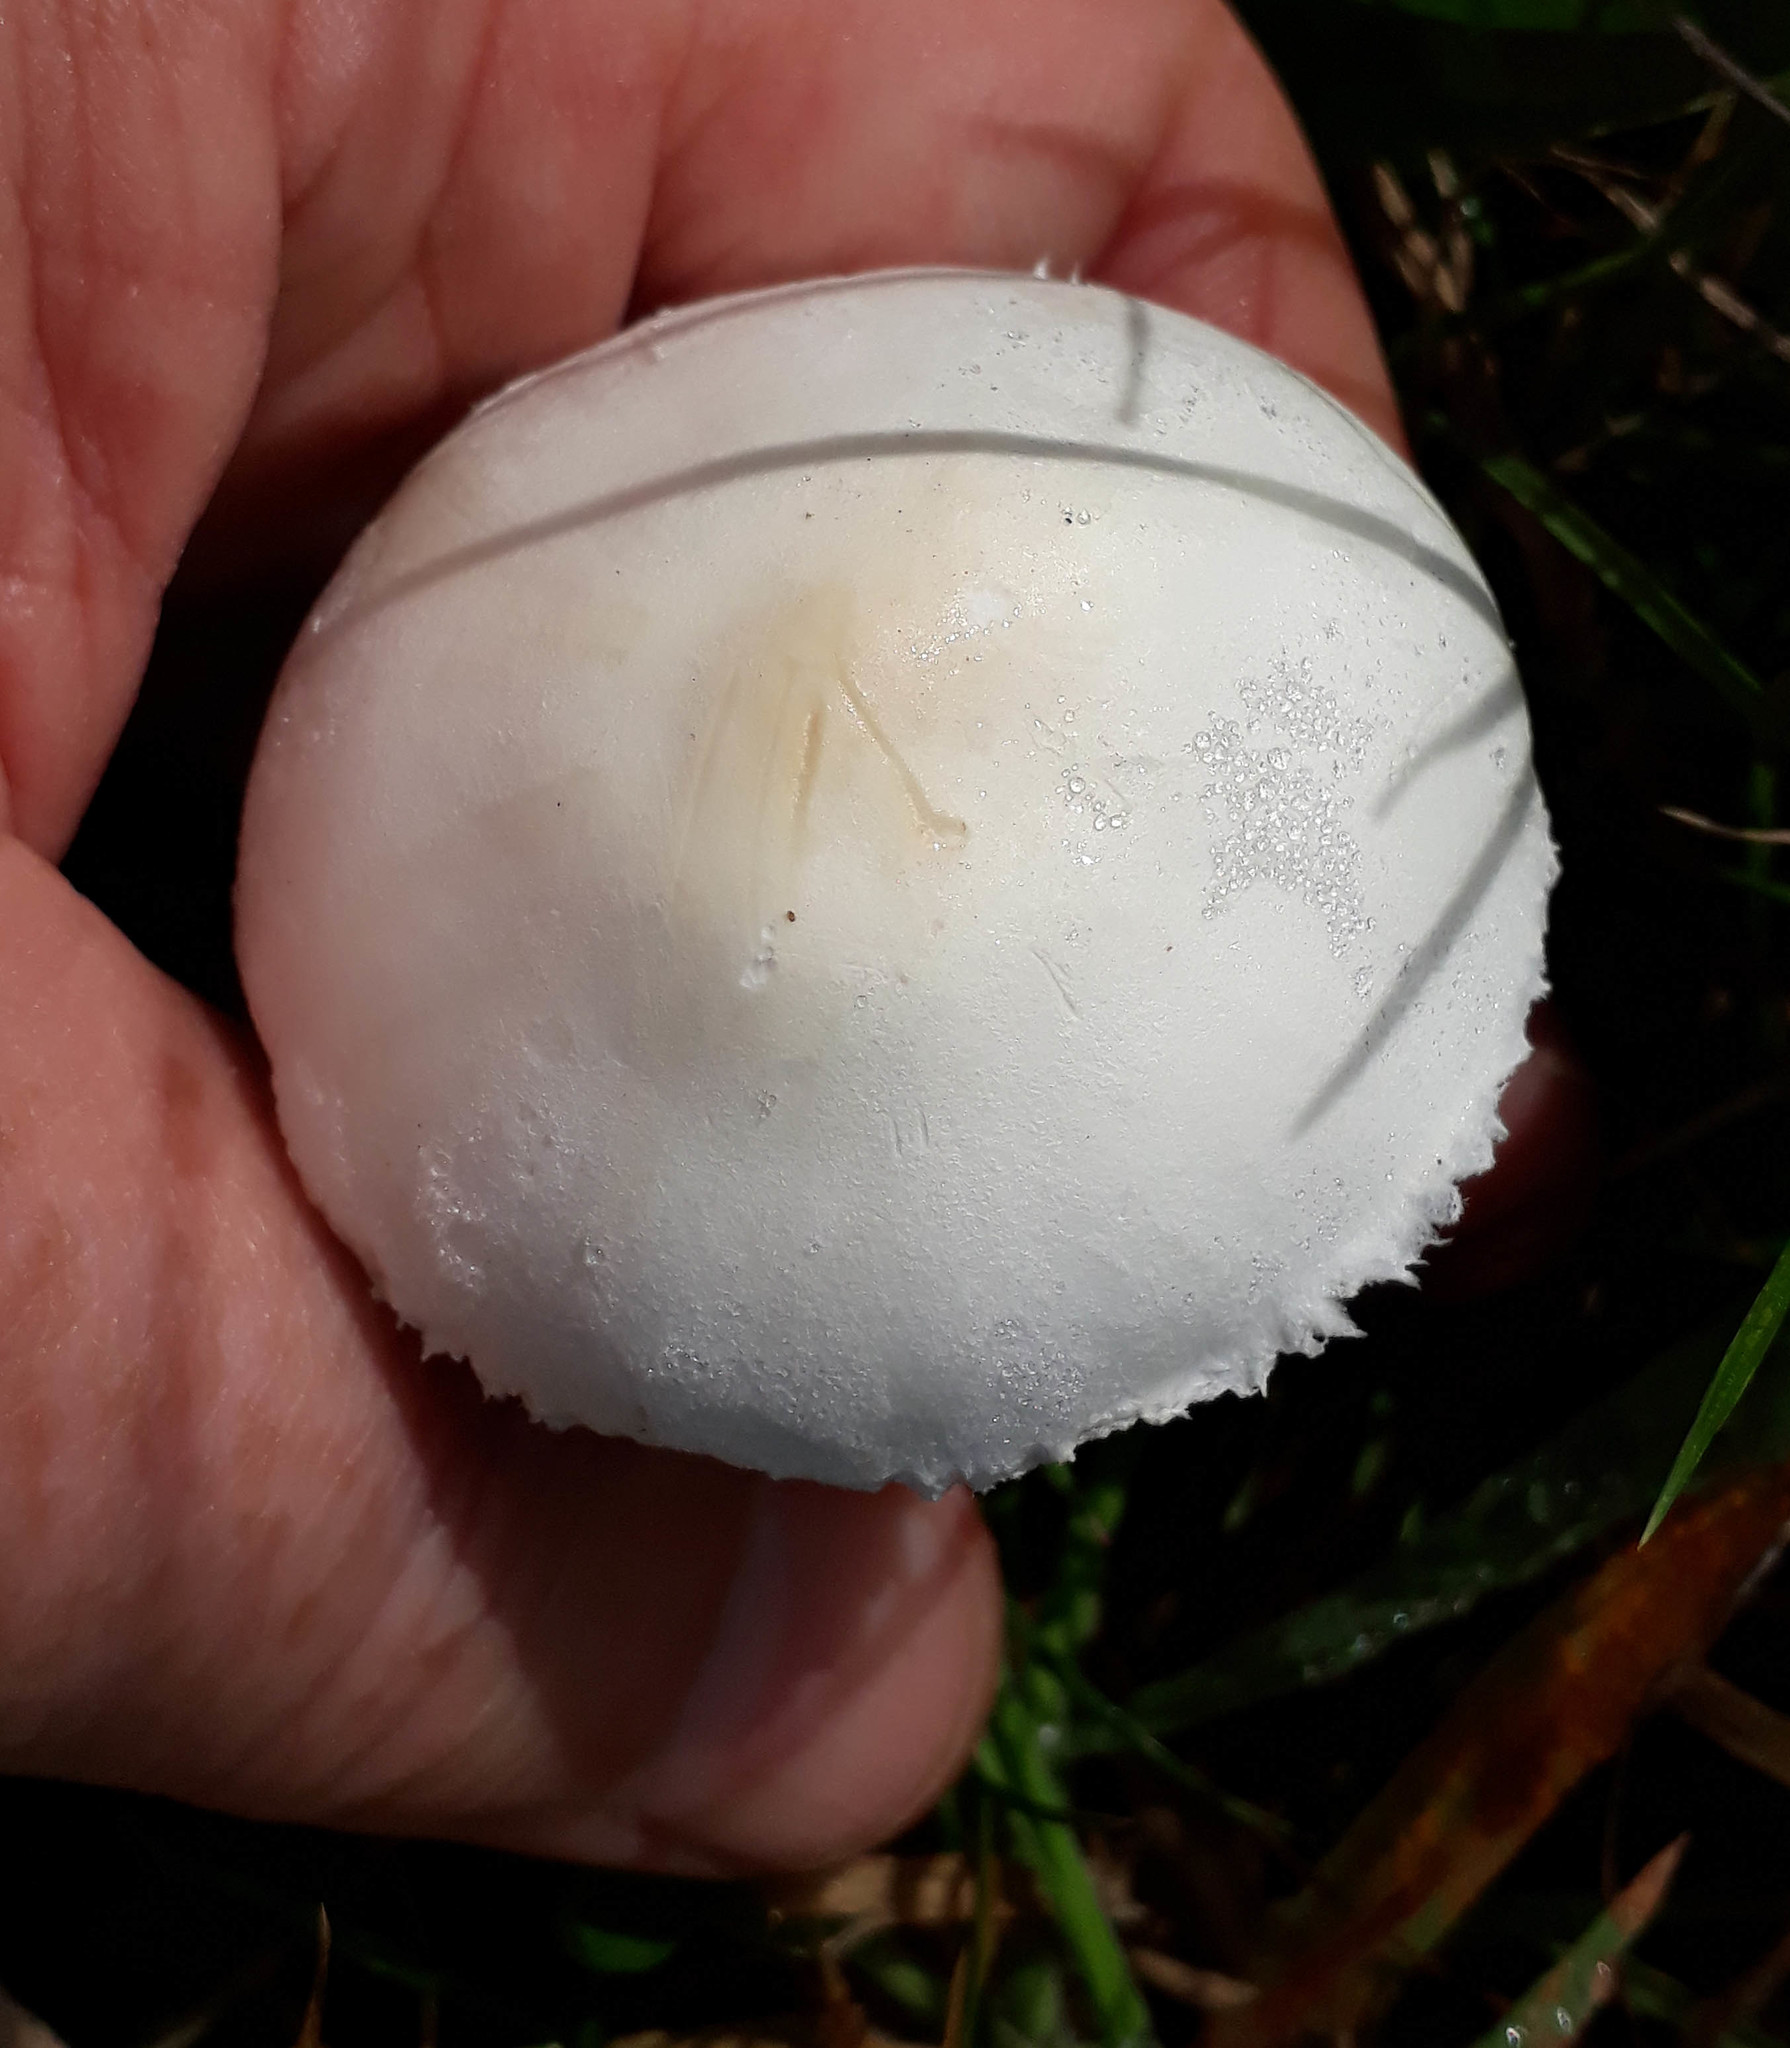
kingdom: Fungi
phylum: Basidiomycota
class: Agaricomycetes
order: Agaricales
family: Agaricaceae
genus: Leucoagaricus
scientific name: Leucoagaricus leucothites
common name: White dapperling
